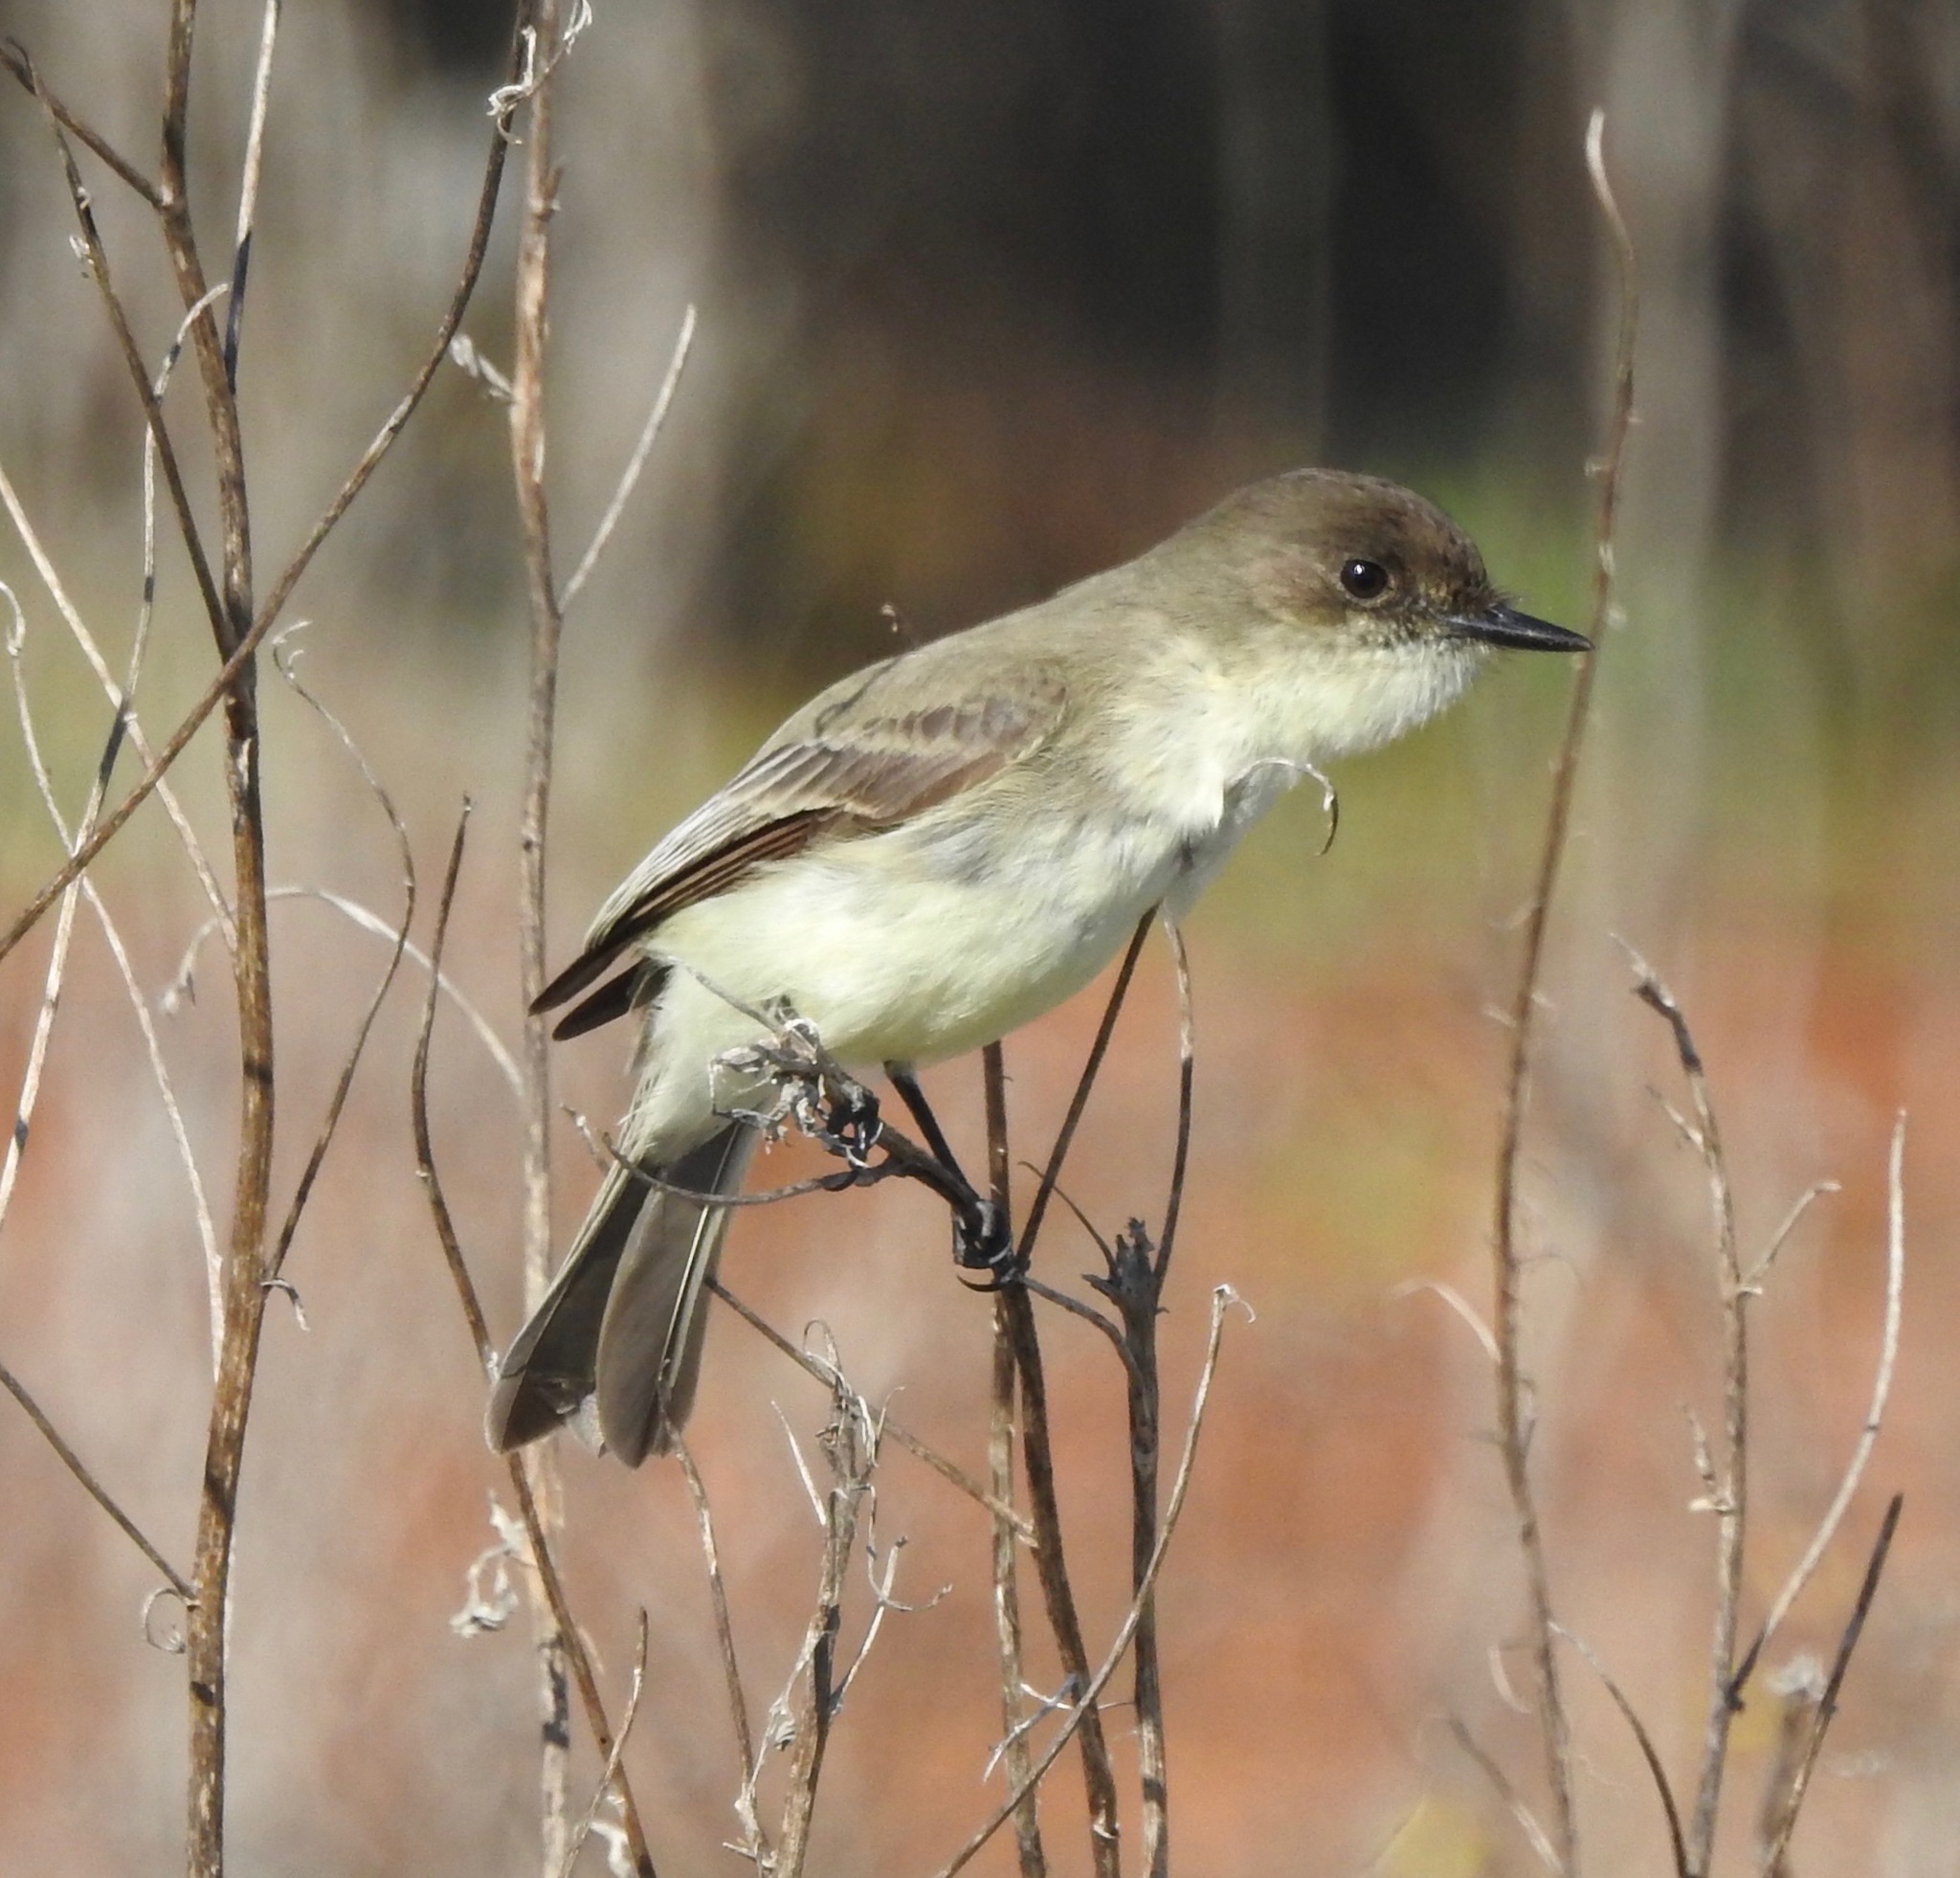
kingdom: Animalia
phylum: Chordata
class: Aves
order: Passeriformes
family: Tyrannidae
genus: Sayornis
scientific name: Sayornis phoebe
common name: Eastern phoebe
